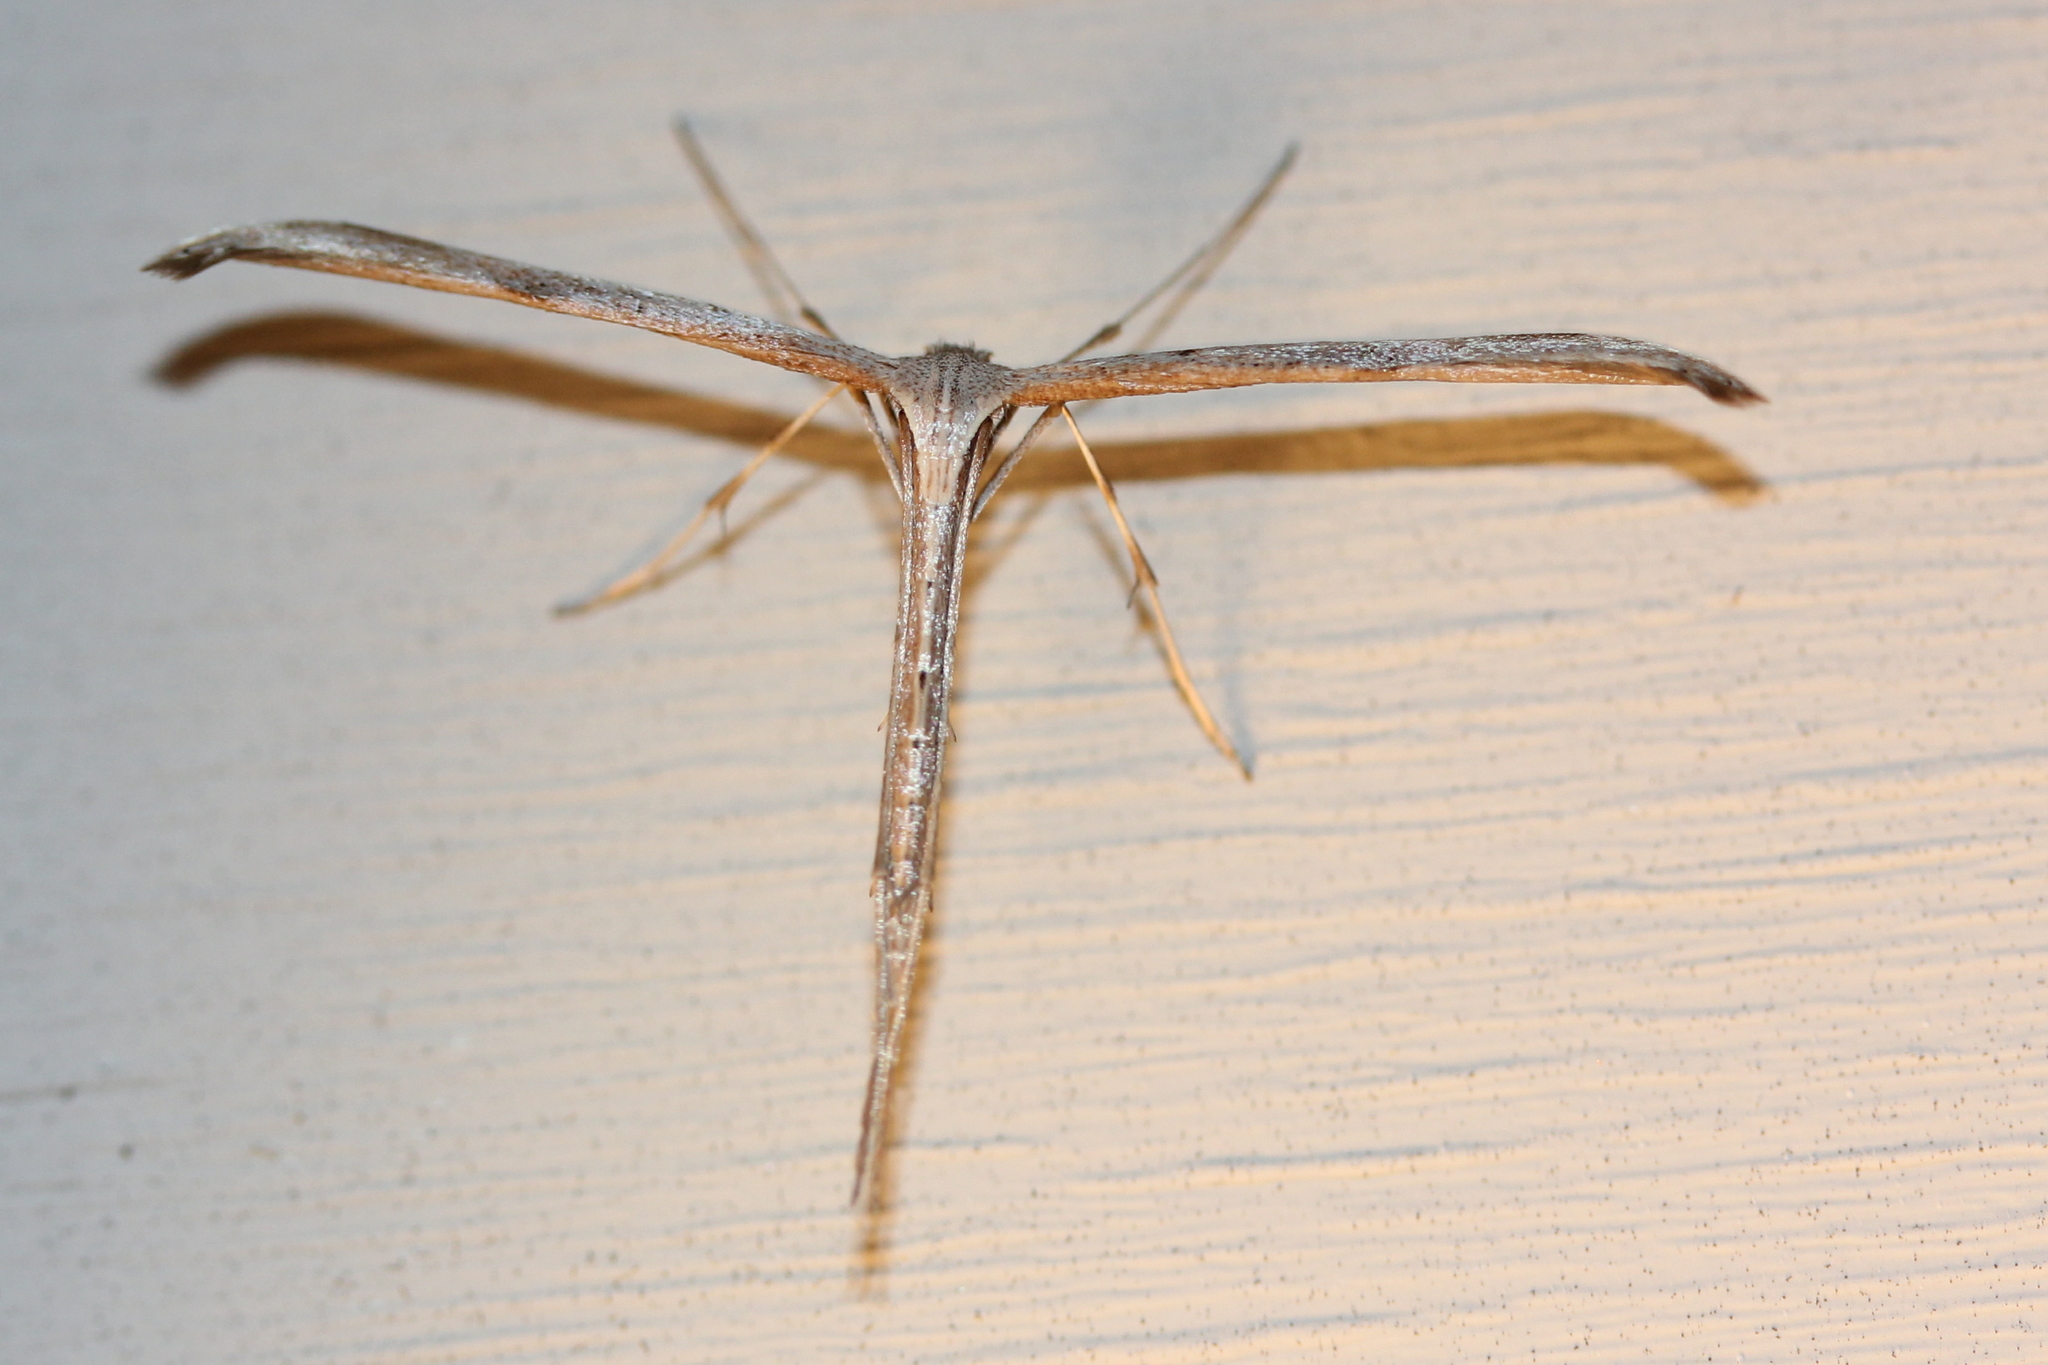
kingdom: Animalia
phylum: Arthropoda
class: Insecta
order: Lepidoptera
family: Pterophoridae
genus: Emmelina
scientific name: Emmelina monodactyla
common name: Common plume
